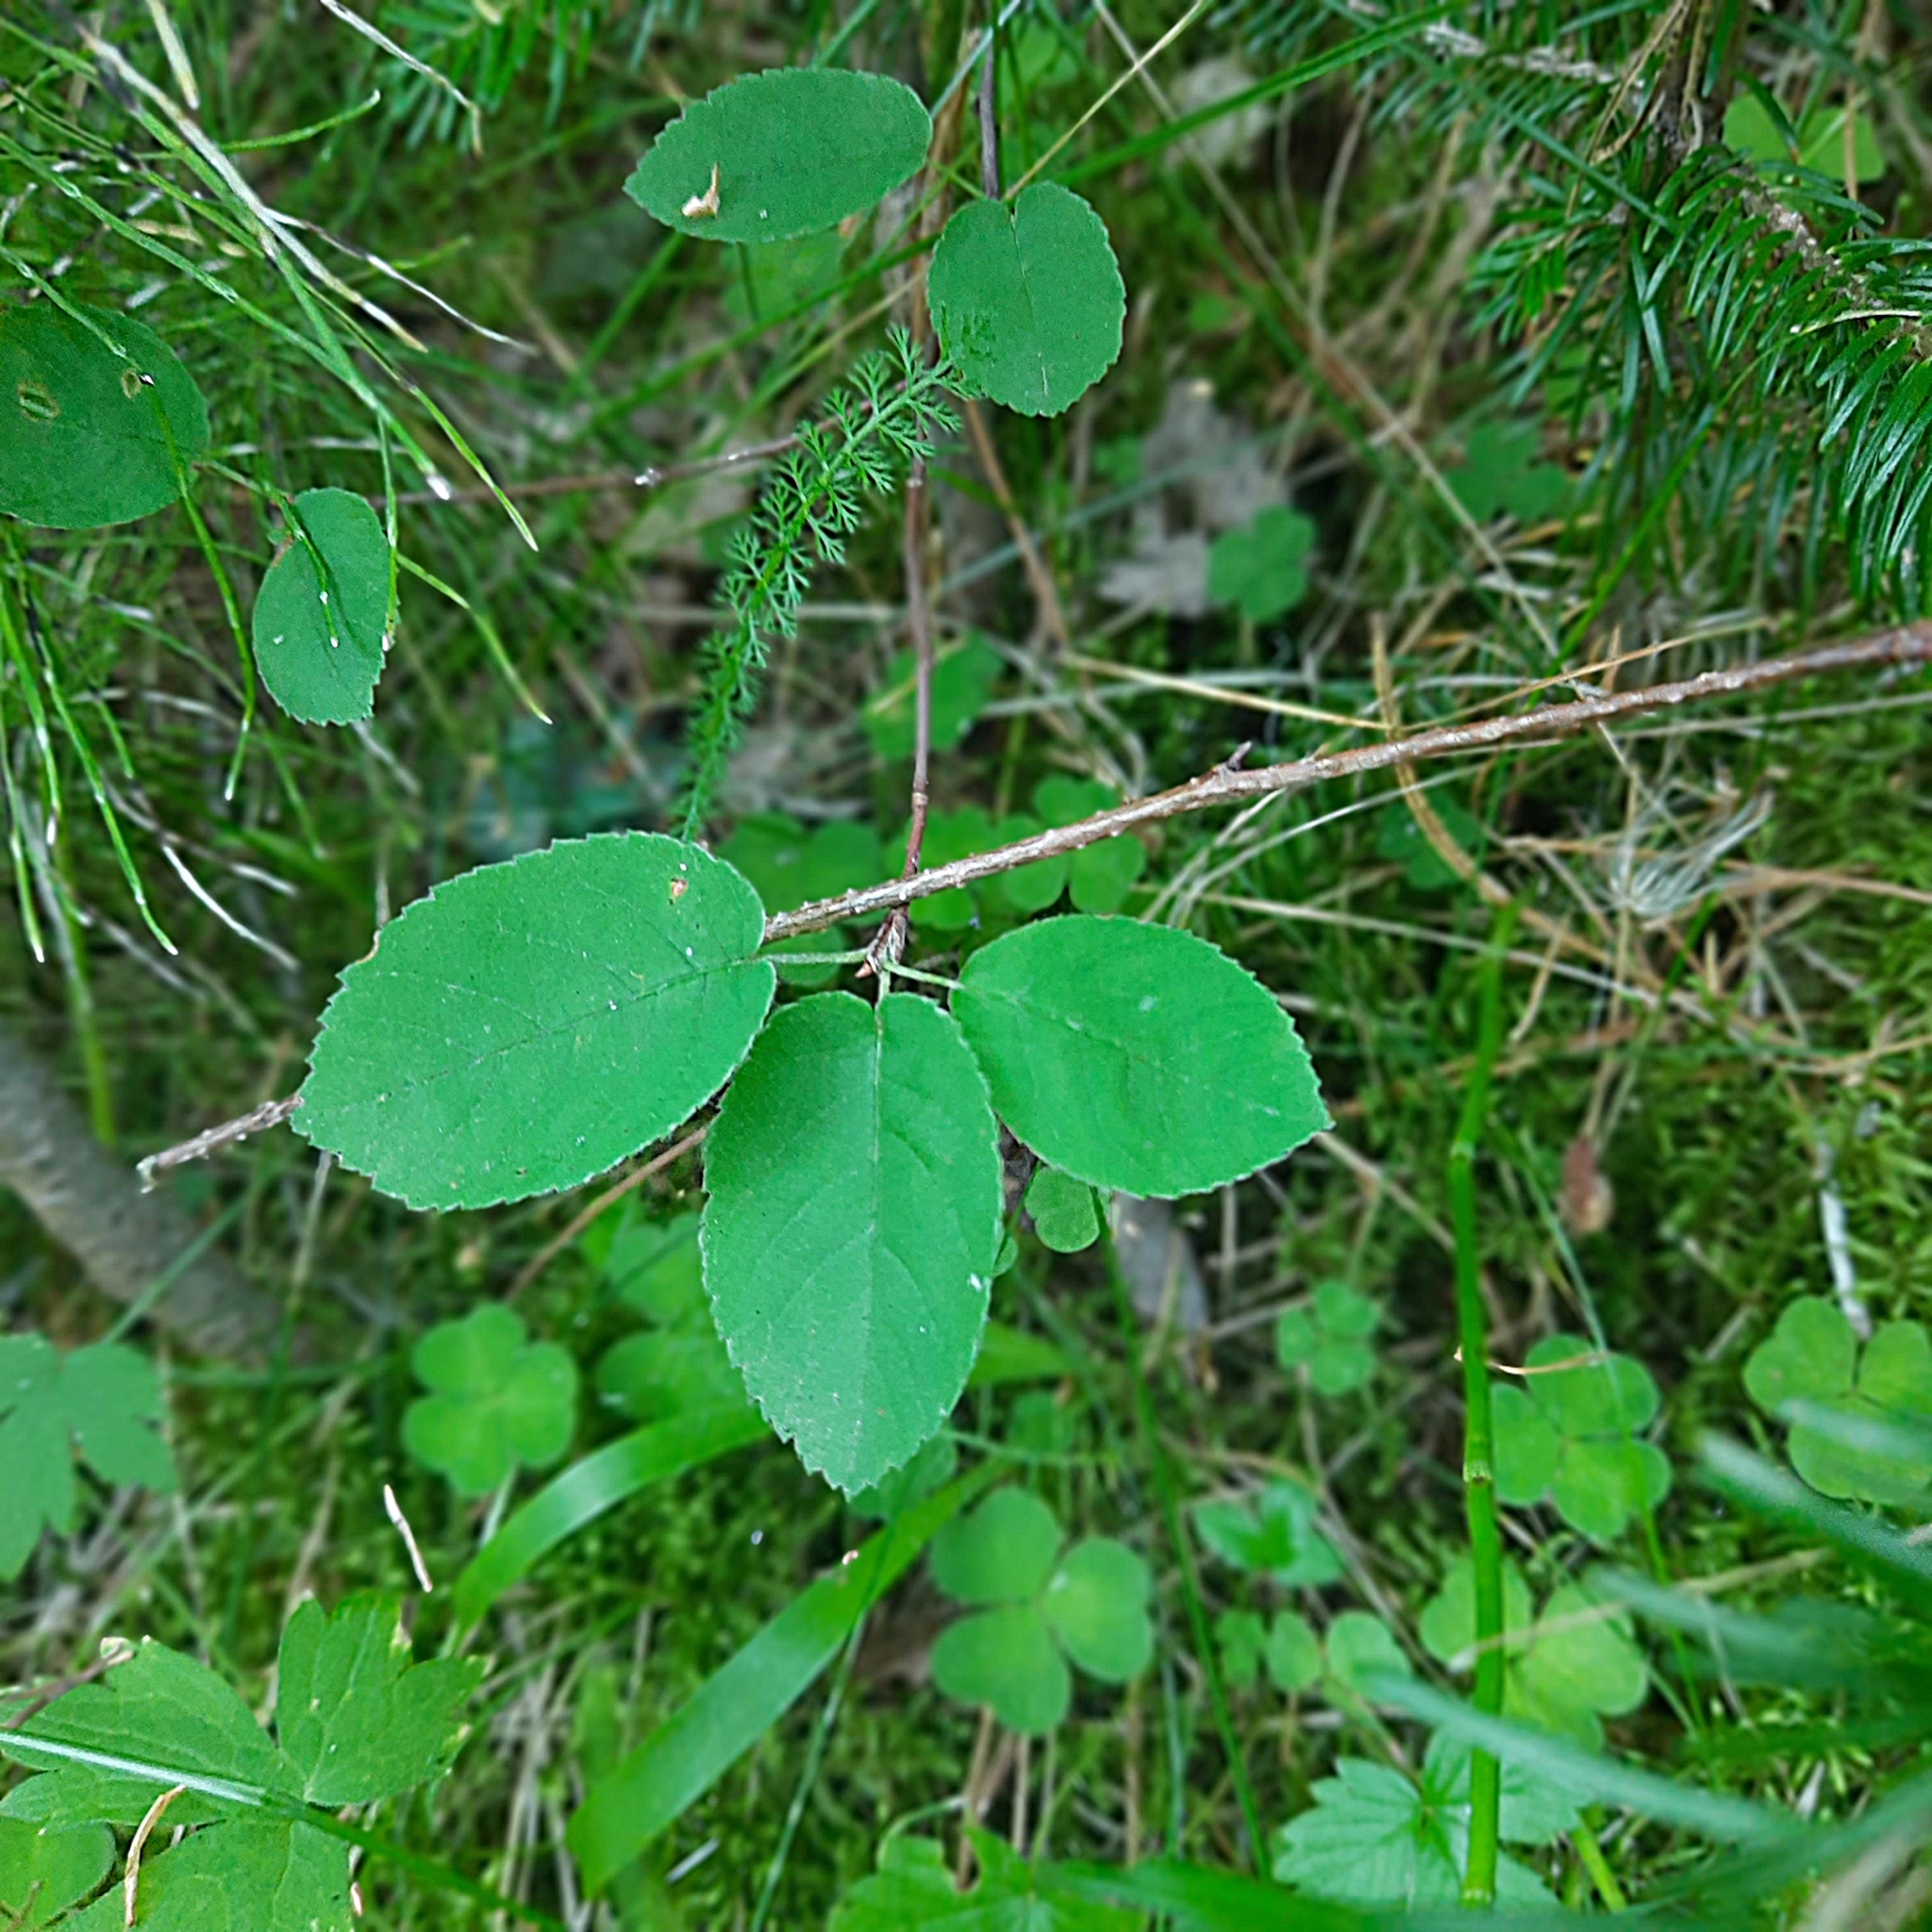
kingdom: Plantae
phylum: Tracheophyta
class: Magnoliopsida
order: Rosales
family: Rosaceae
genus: Amelanchier
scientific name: Amelanchier
